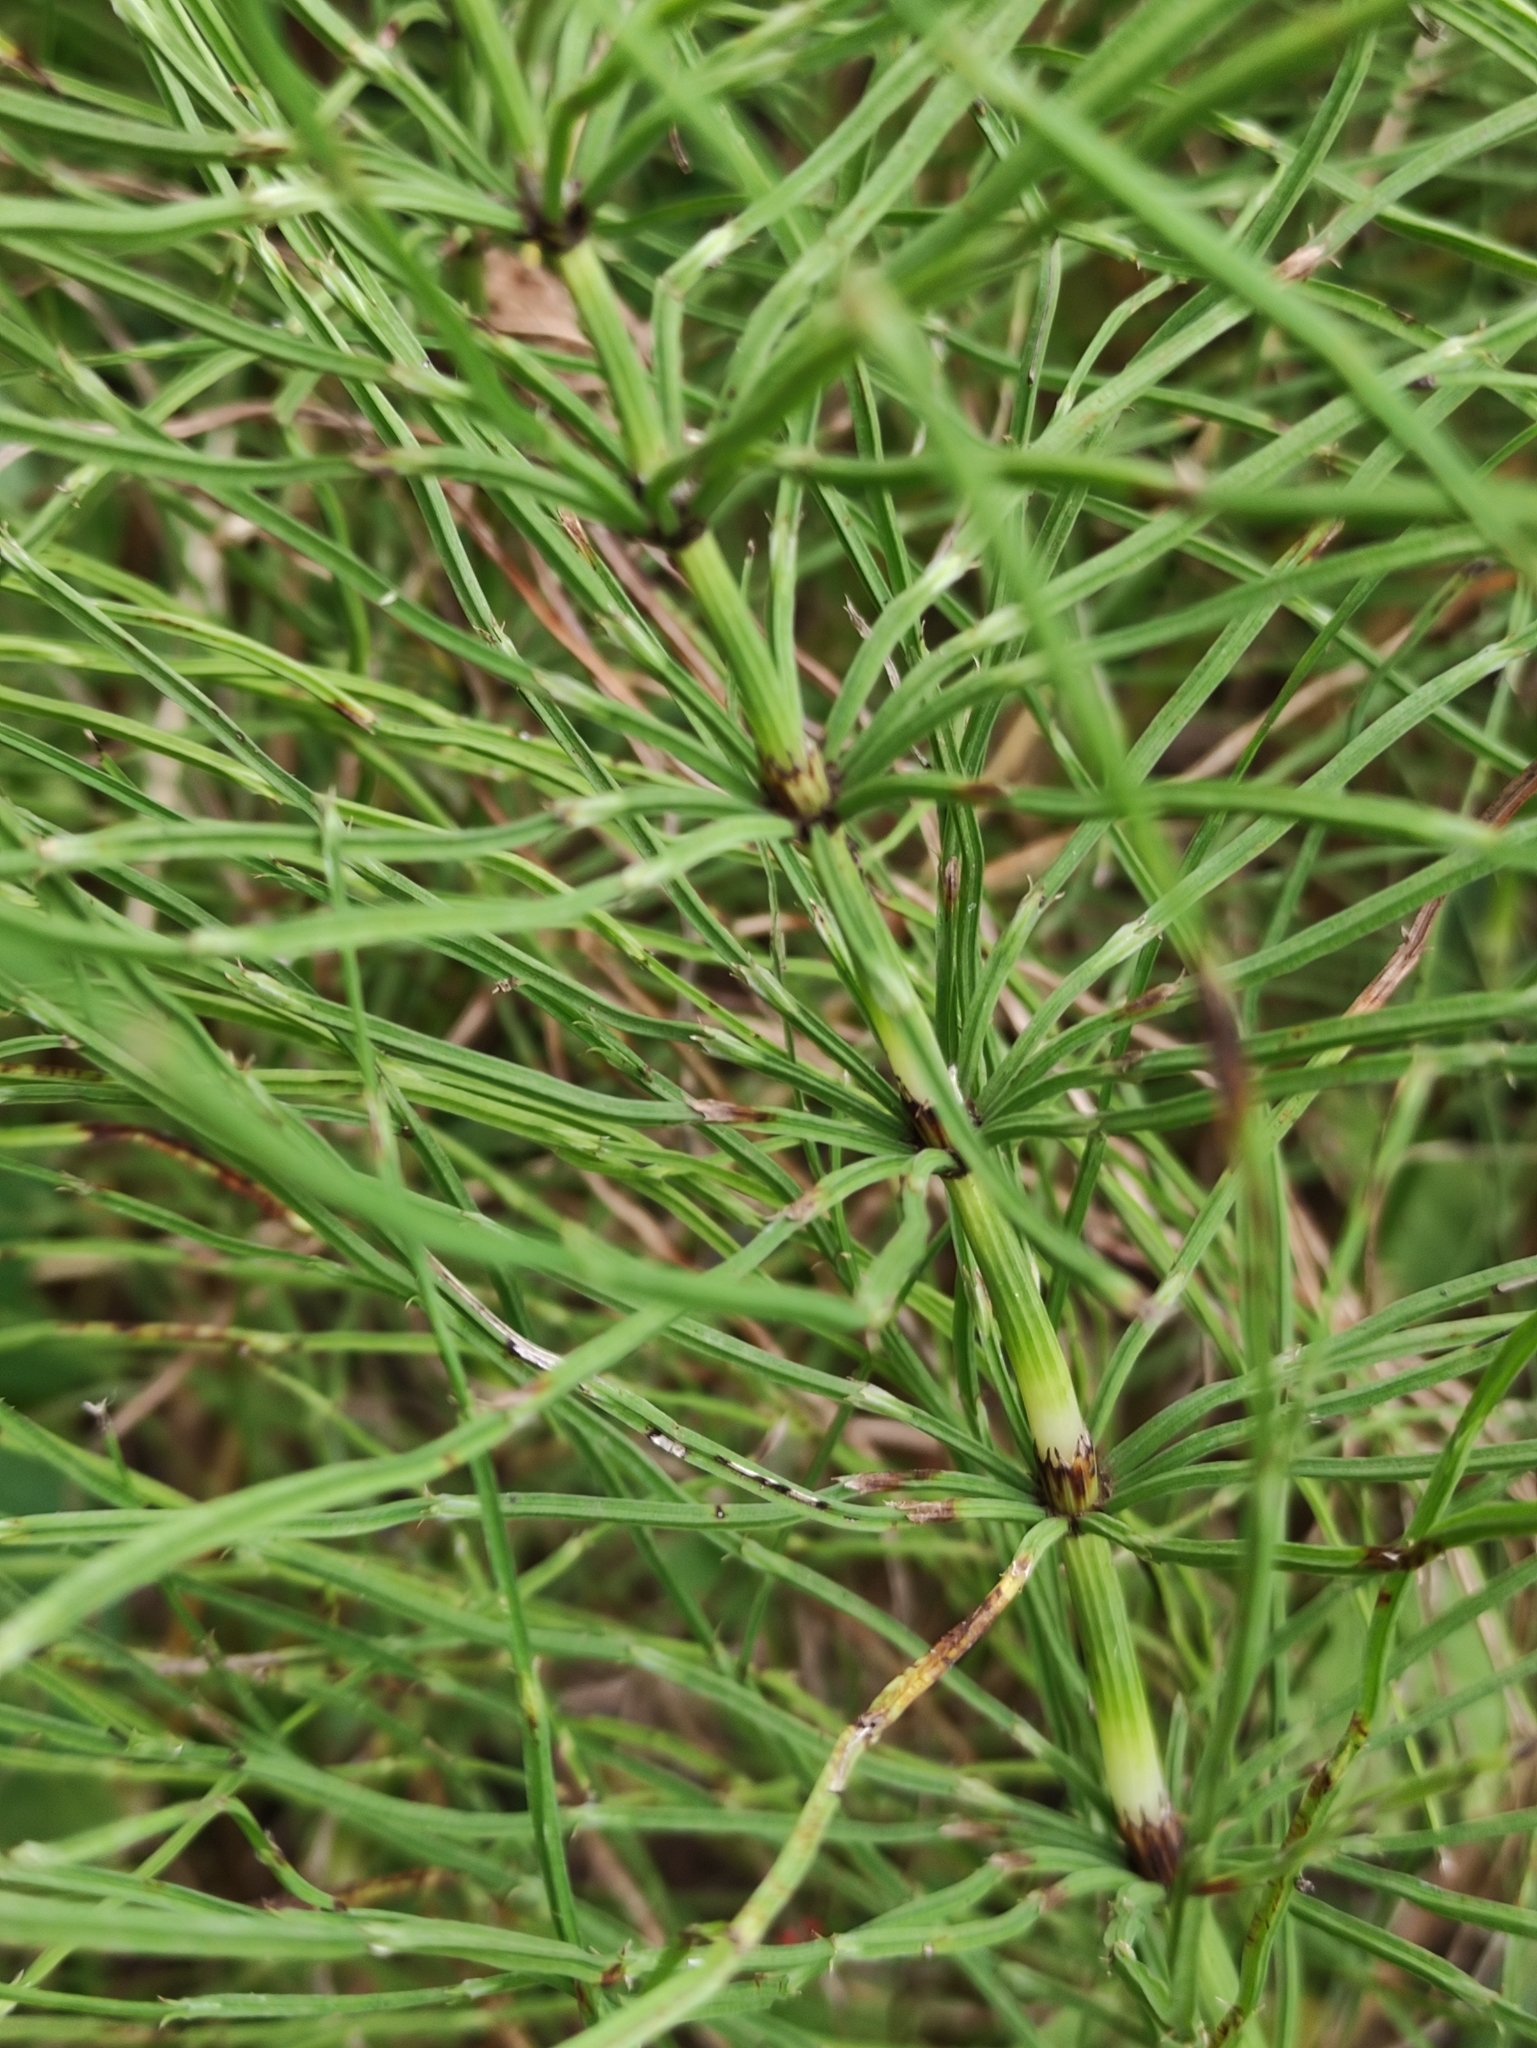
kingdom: Plantae
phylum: Tracheophyta
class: Polypodiopsida
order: Equisetales
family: Equisetaceae
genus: Equisetum
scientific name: Equisetum arvense
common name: Field horsetail
